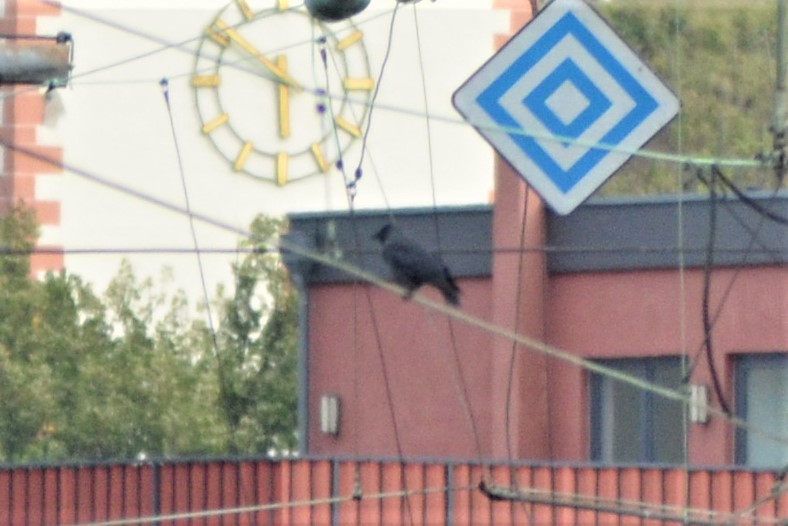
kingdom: Animalia
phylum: Chordata
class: Aves
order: Passeriformes
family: Corvidae
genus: Coloeus
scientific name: Coloeus monedula
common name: Western jackdaw
